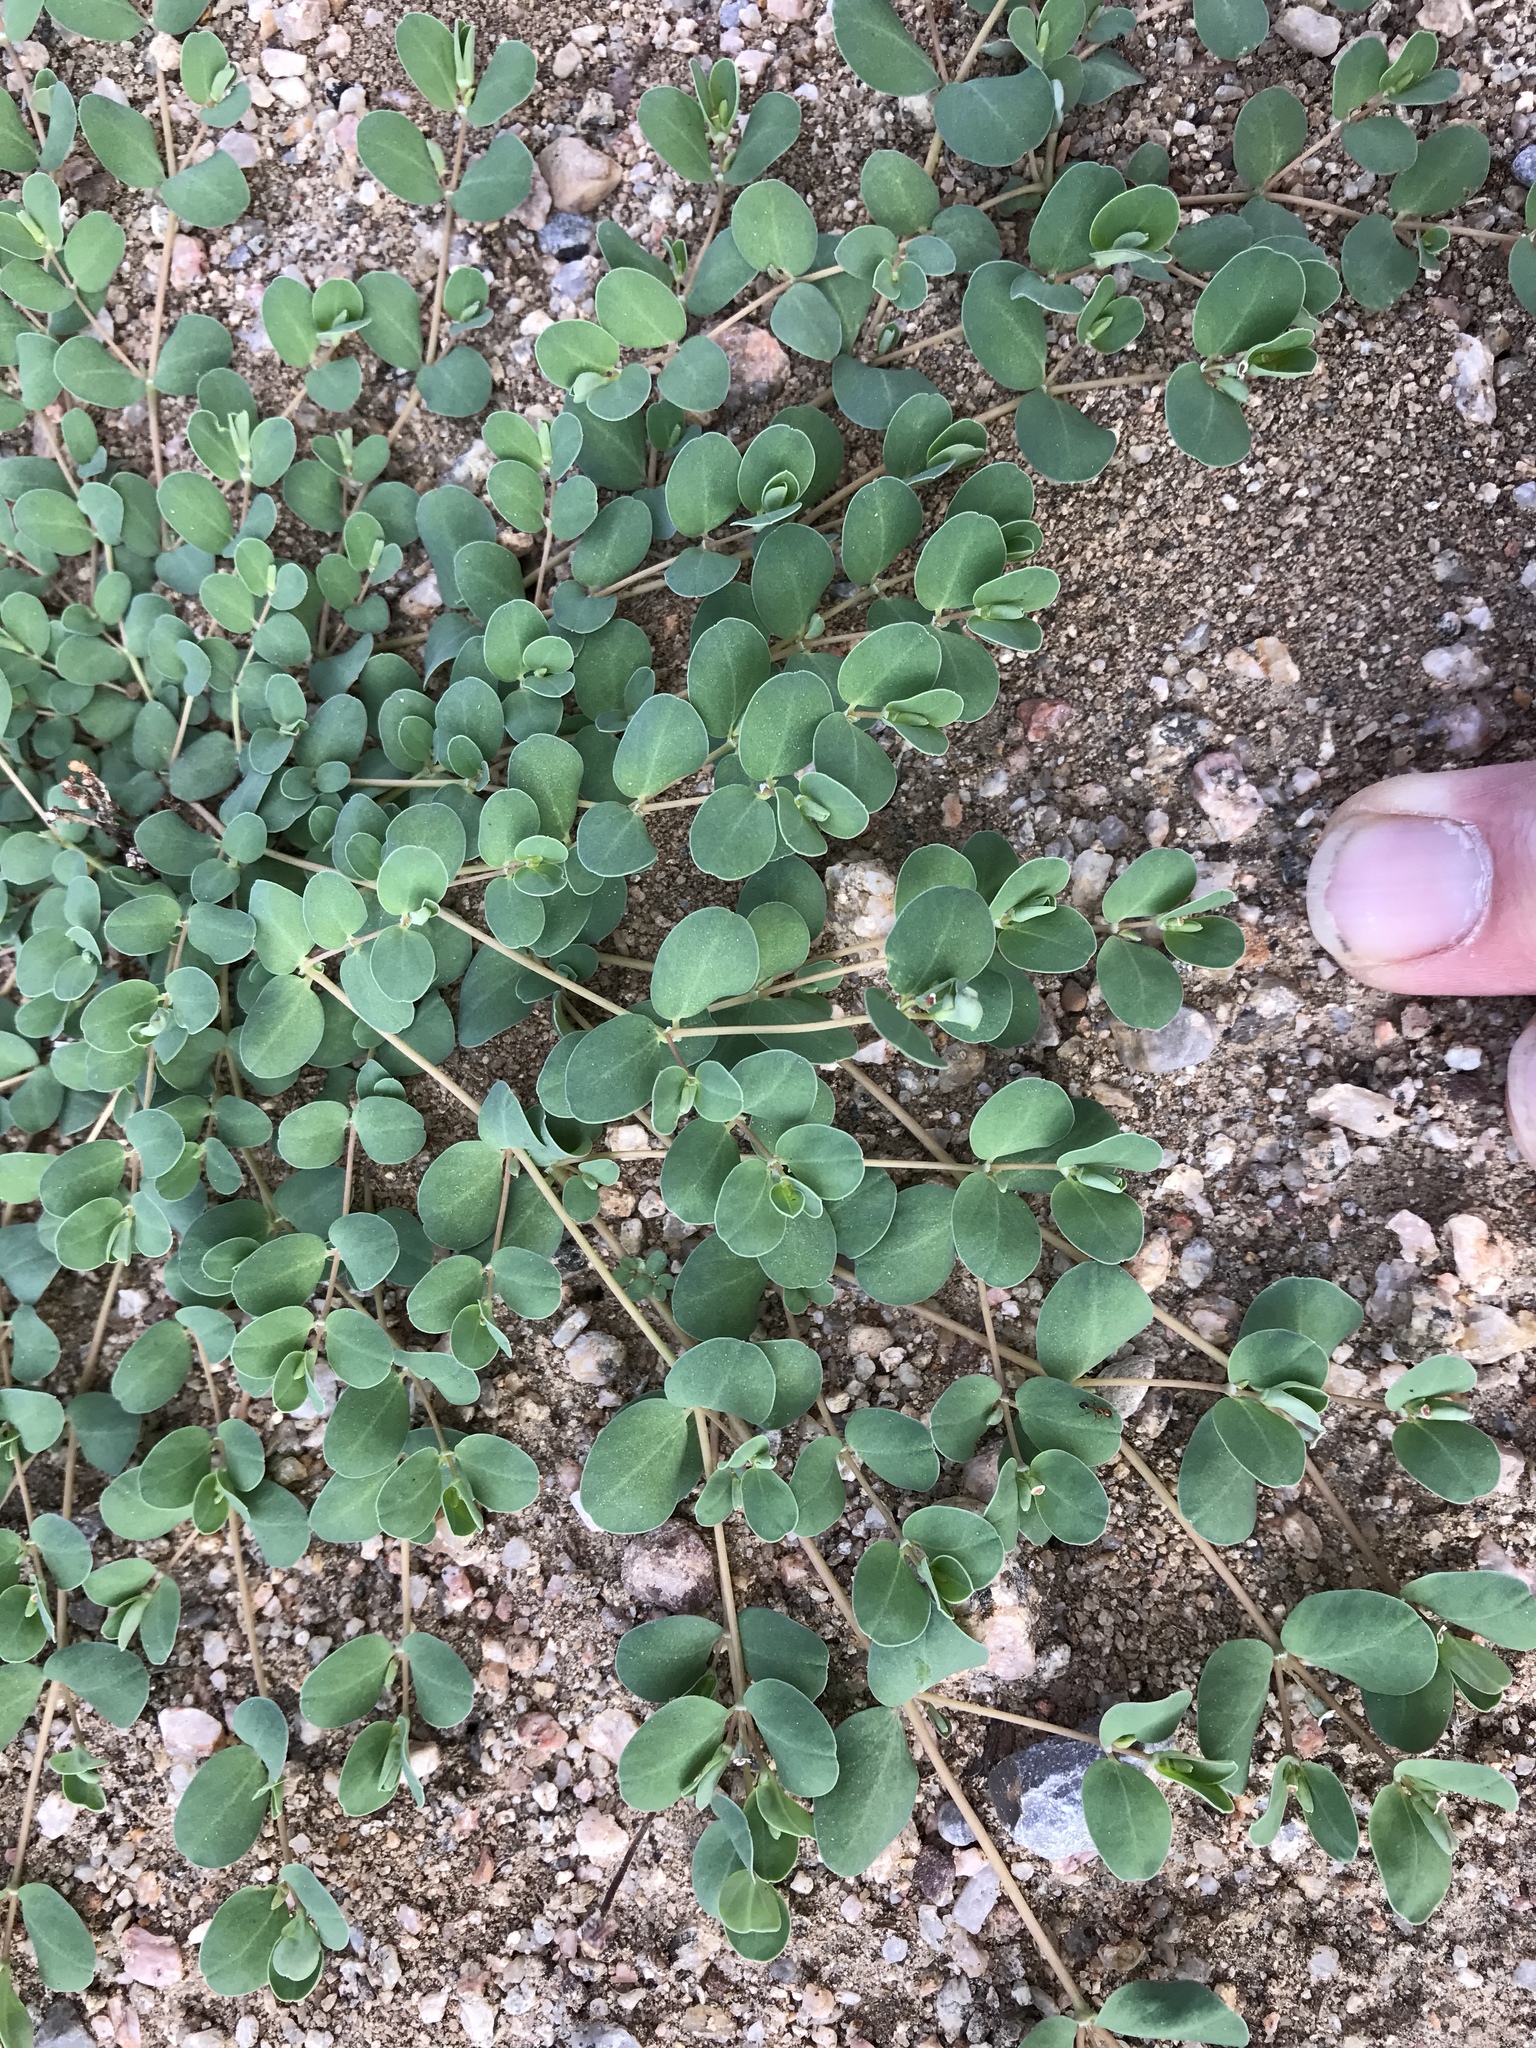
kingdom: Plantae
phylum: Tracheophyta
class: Magnoliopsida
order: Malpighiales
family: Euphorbiaceae
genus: Euphorbia
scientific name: Euphorbia albomarginata
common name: Whitemargin sandmat
